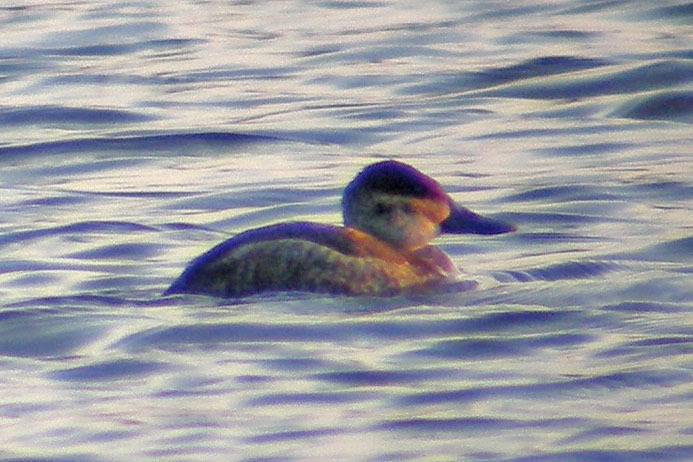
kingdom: Animalia
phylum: Chordata
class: Aves
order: Anseriformes
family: Anatidae
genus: Oxyura
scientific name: Oxyura jamaicensis
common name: Ruddy duck
